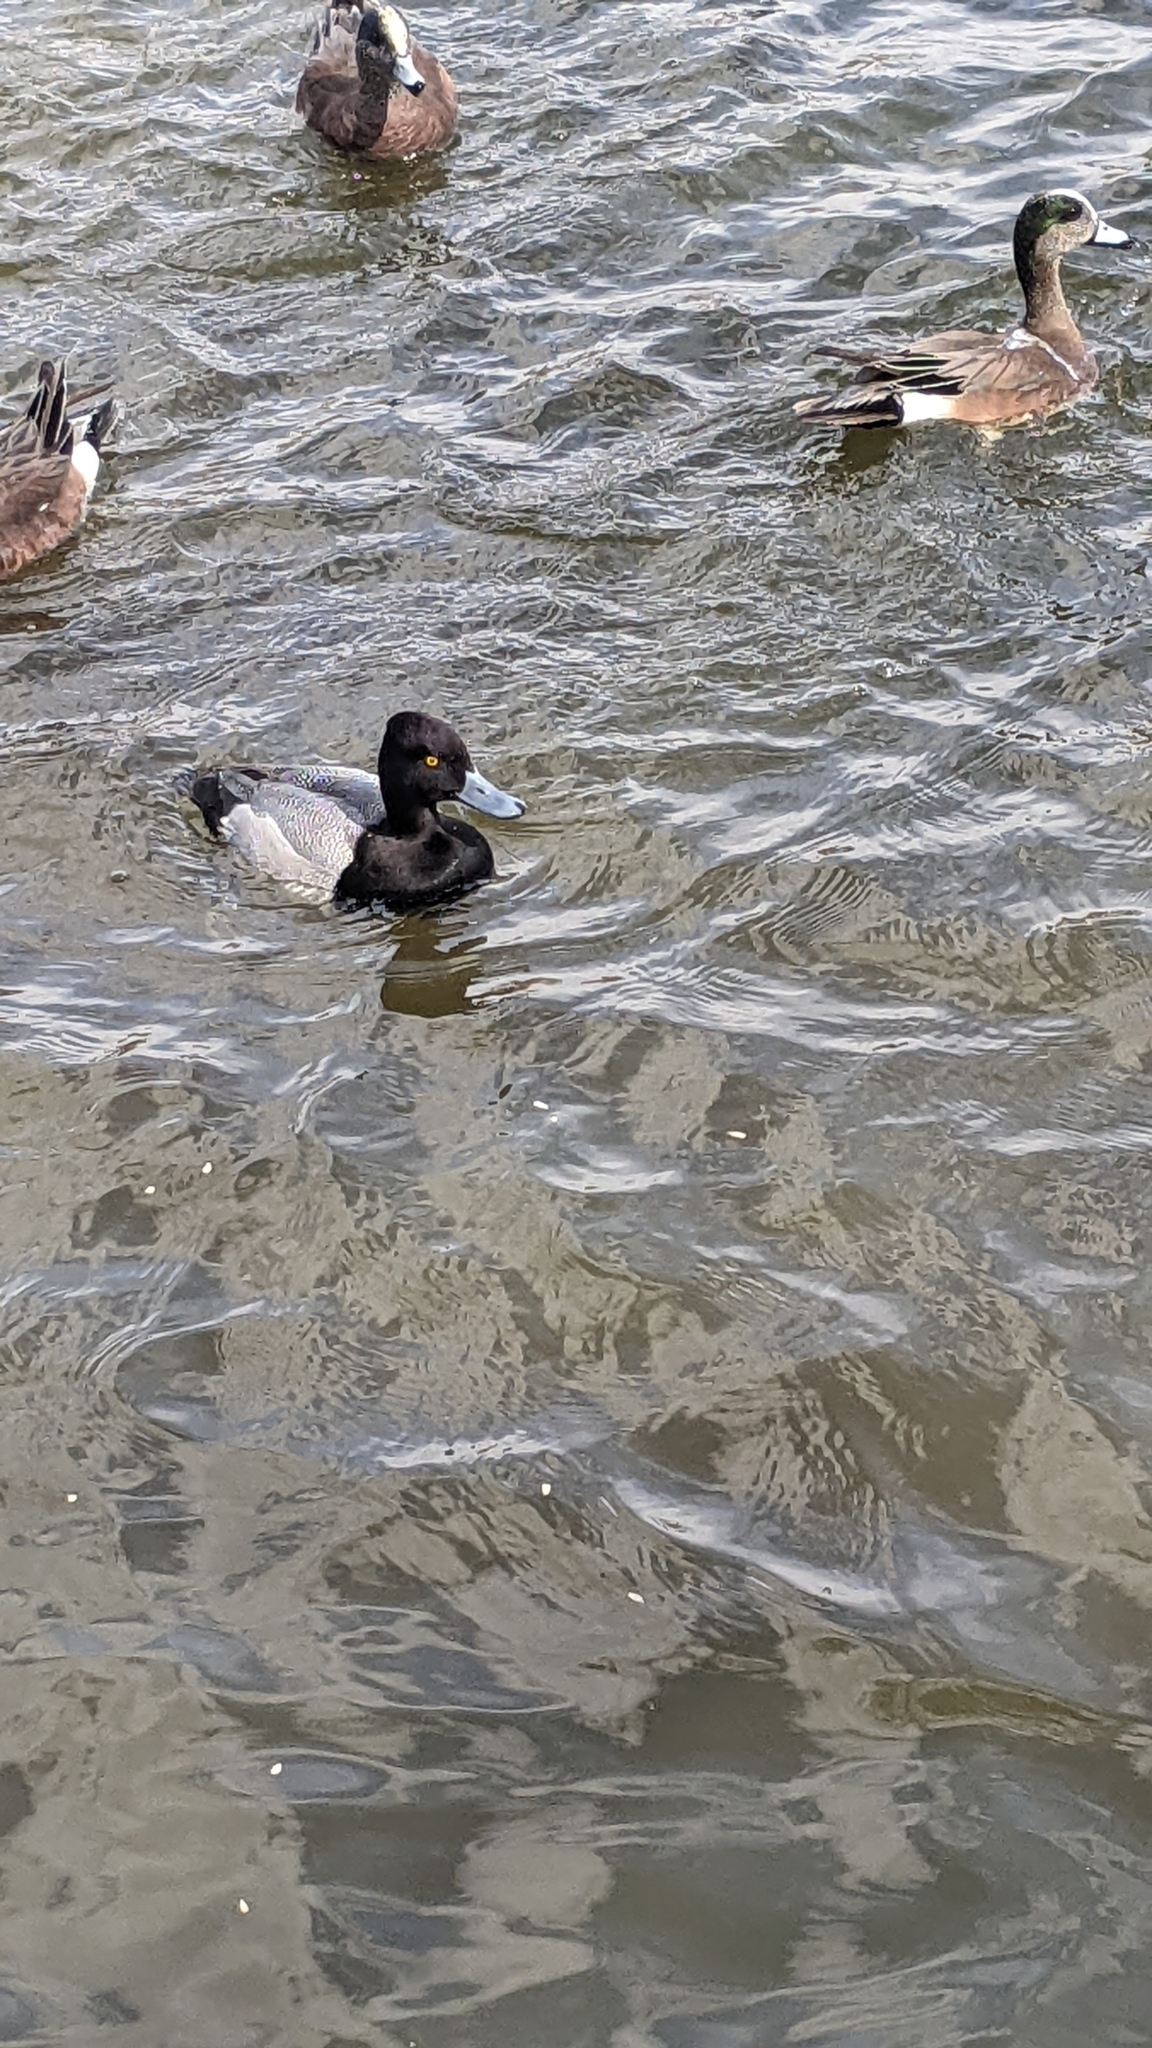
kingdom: Animalia
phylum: Chordata
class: Aves
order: Anseriformes
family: Anatidae
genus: Aythya
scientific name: Aythya affinis
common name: Lesser scaup
